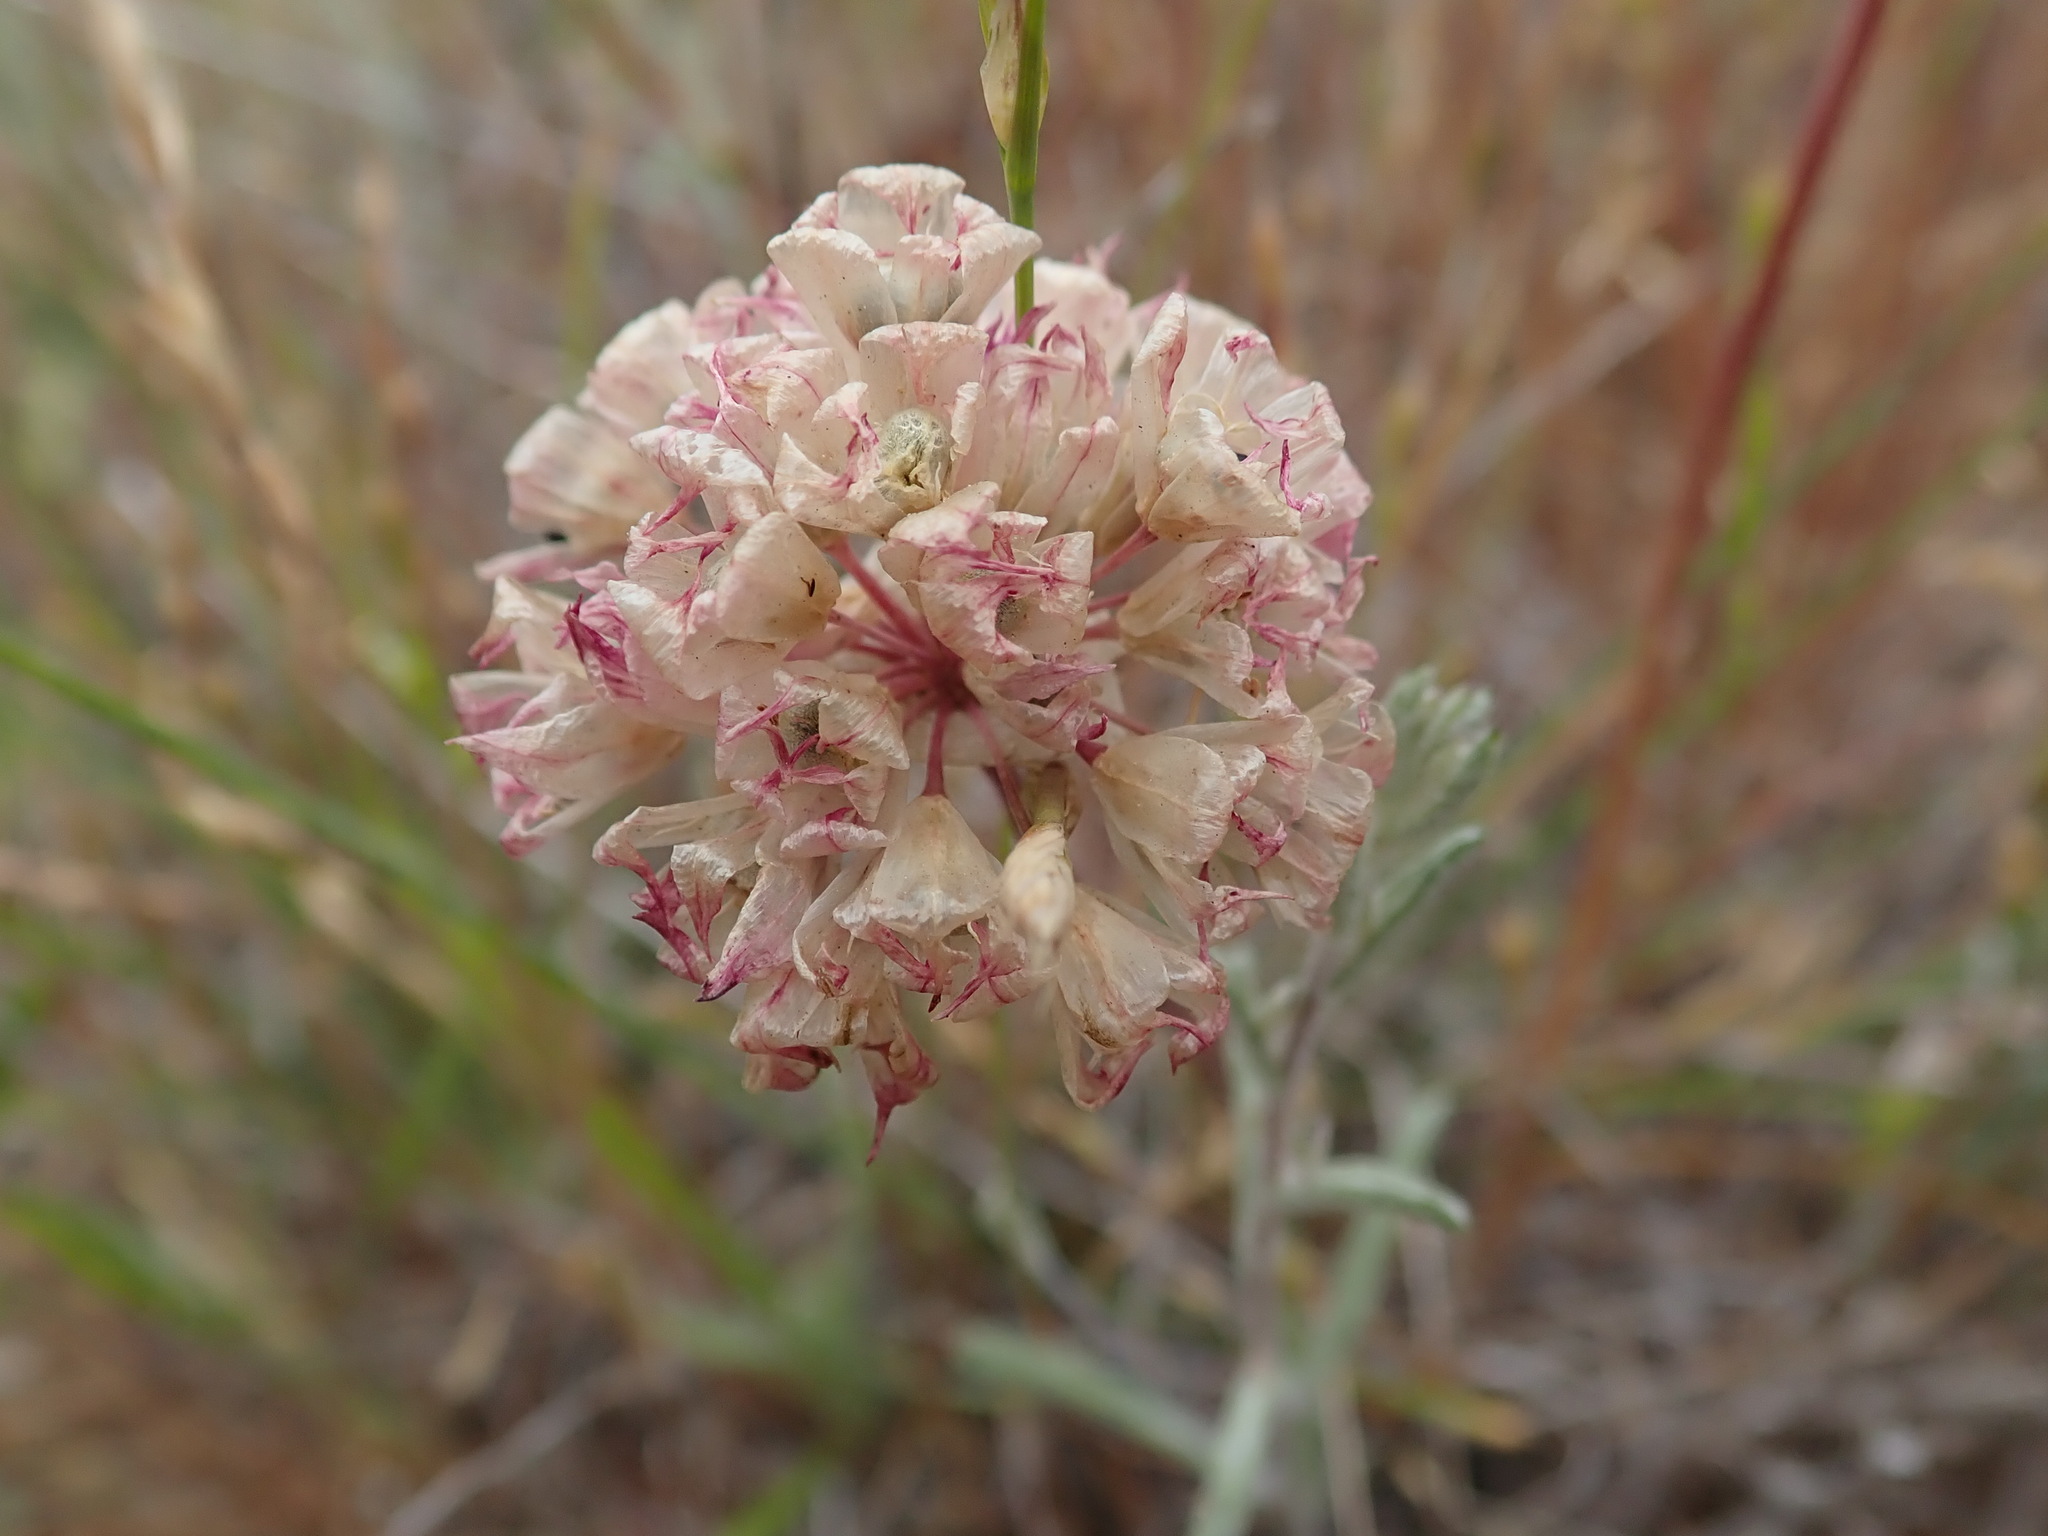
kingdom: Plantae
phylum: Tracheophyta
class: Liliopsida
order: Asparagales
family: Amaryllidaceae
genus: Allium
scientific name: Allium serra
